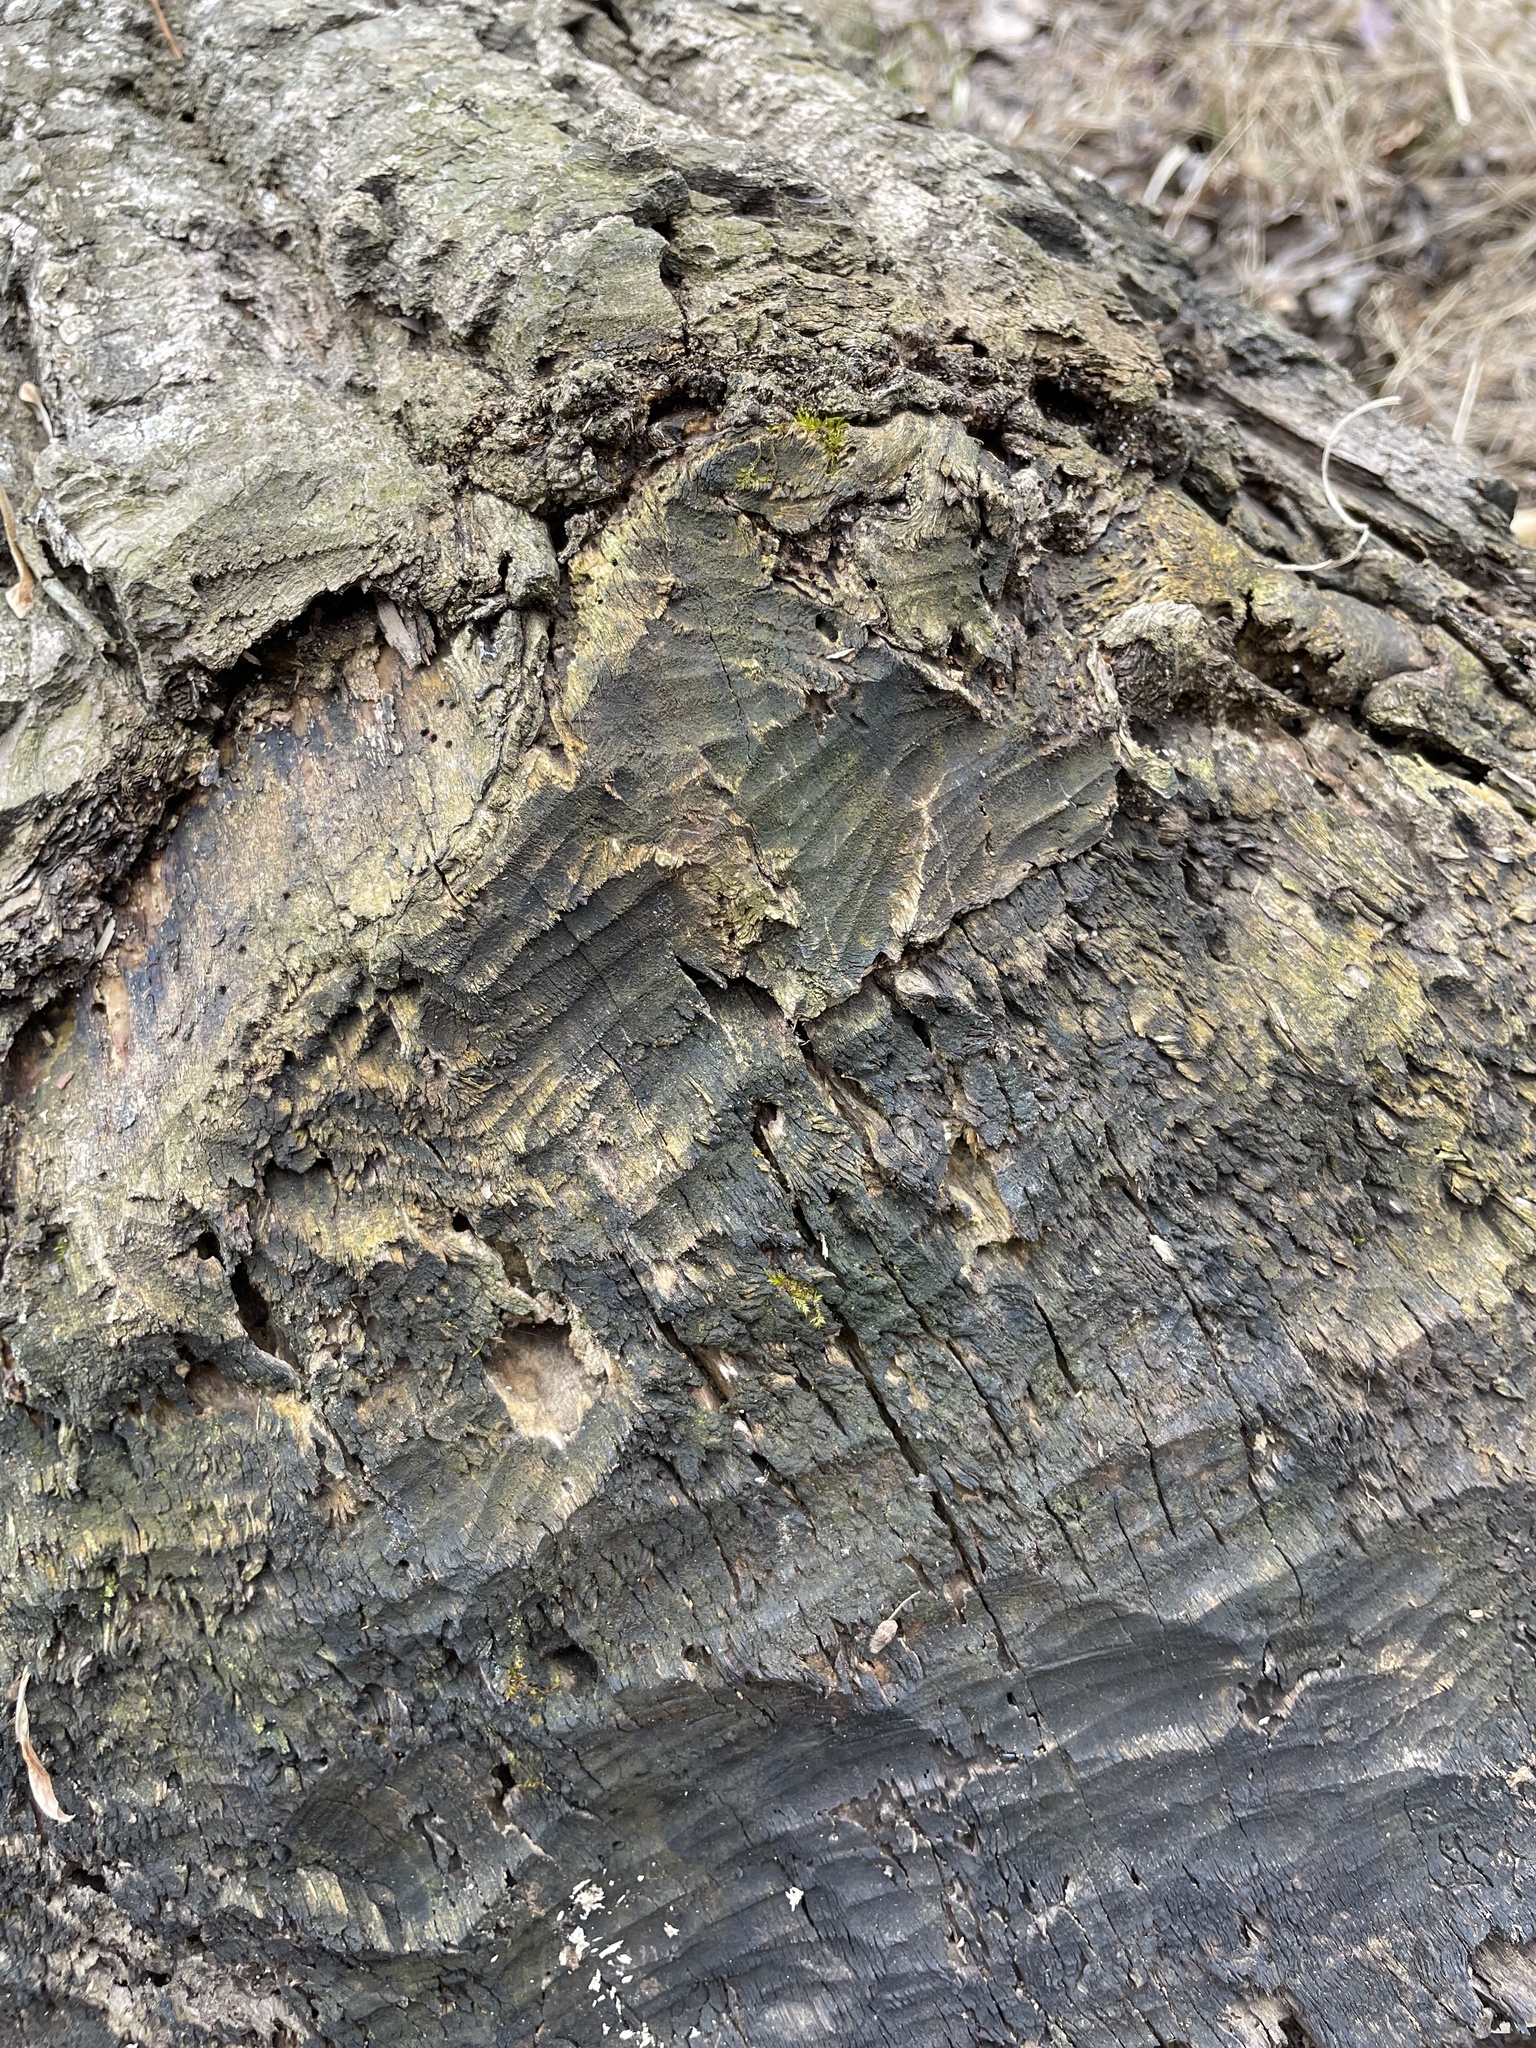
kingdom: Animalia
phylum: Chordata
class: Mammalia
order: Rodentia
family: Castoridae
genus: Castor
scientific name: Castor canadensis
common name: American beaver
